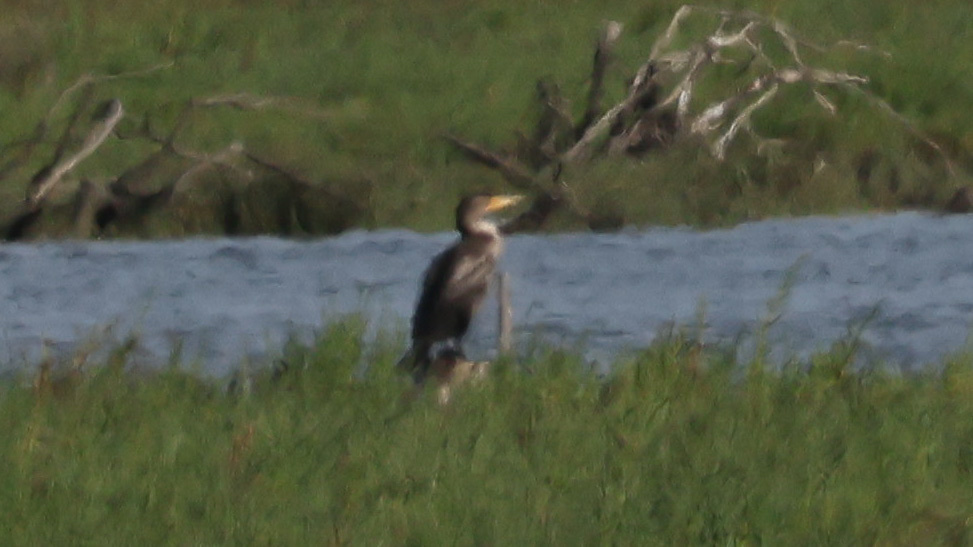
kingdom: Animalia
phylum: Chordata
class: Aves
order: Suliformes
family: Phalacrocoracidae
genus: Phalacrocorax
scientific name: Phalacrocorax auritus
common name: Double-crested cormorant
